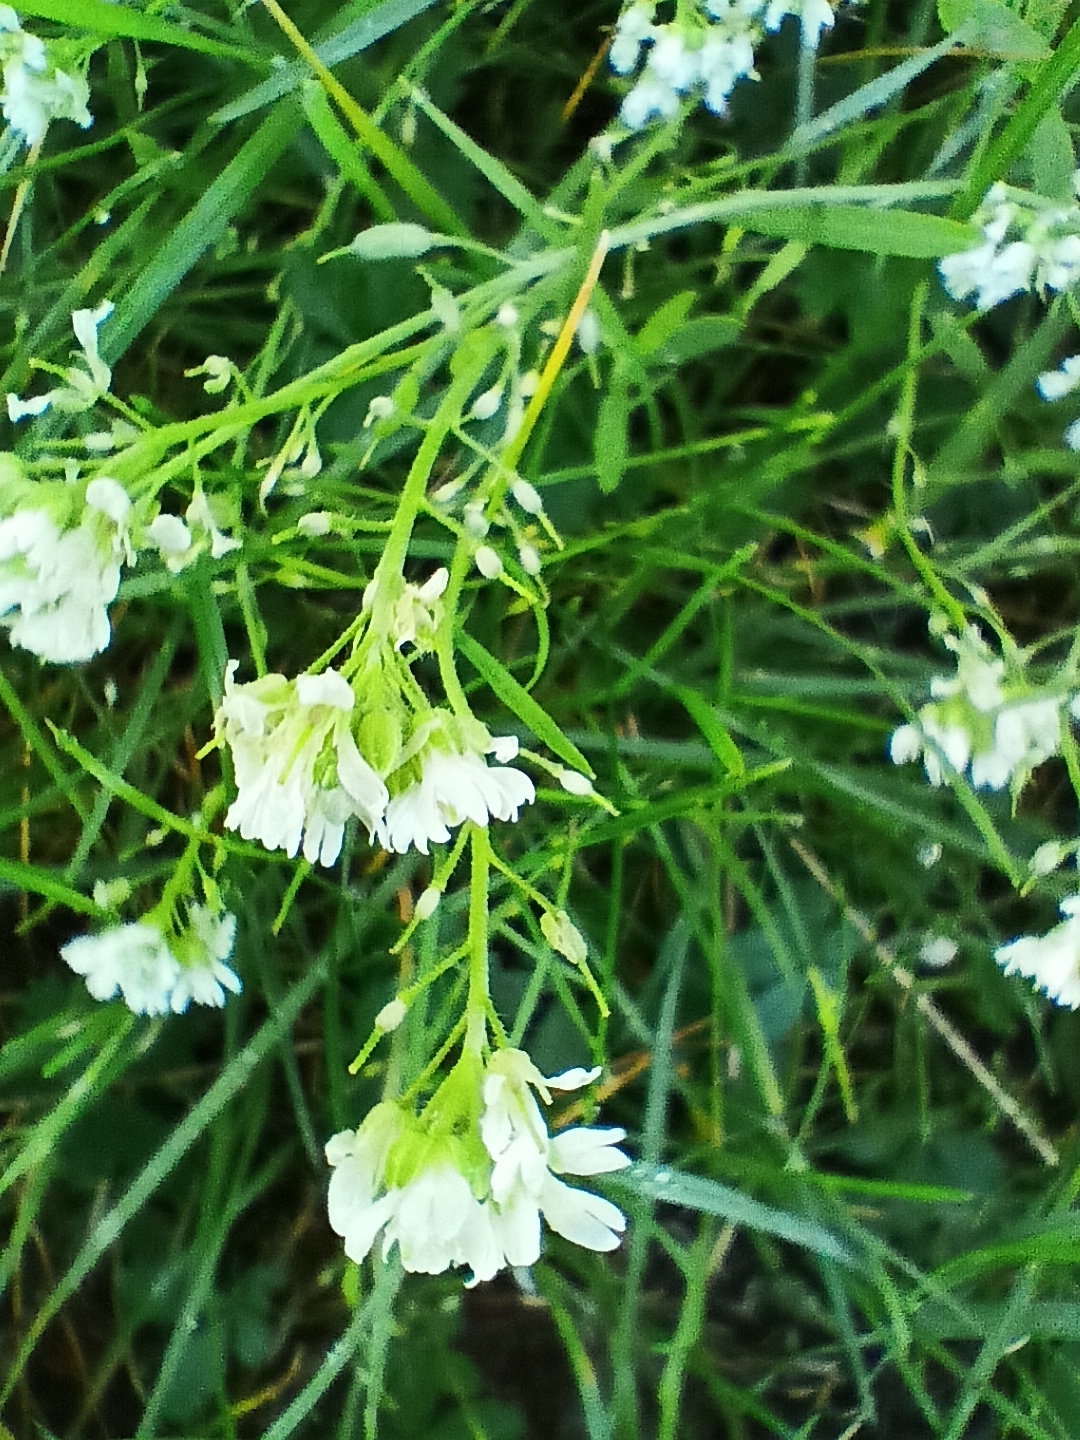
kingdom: Plantae
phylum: Tracheophyta
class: Magnoliopsida
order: Brassicales
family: Brassicaceae
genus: Berteroa
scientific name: Berteroa incana
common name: Hoary alison
